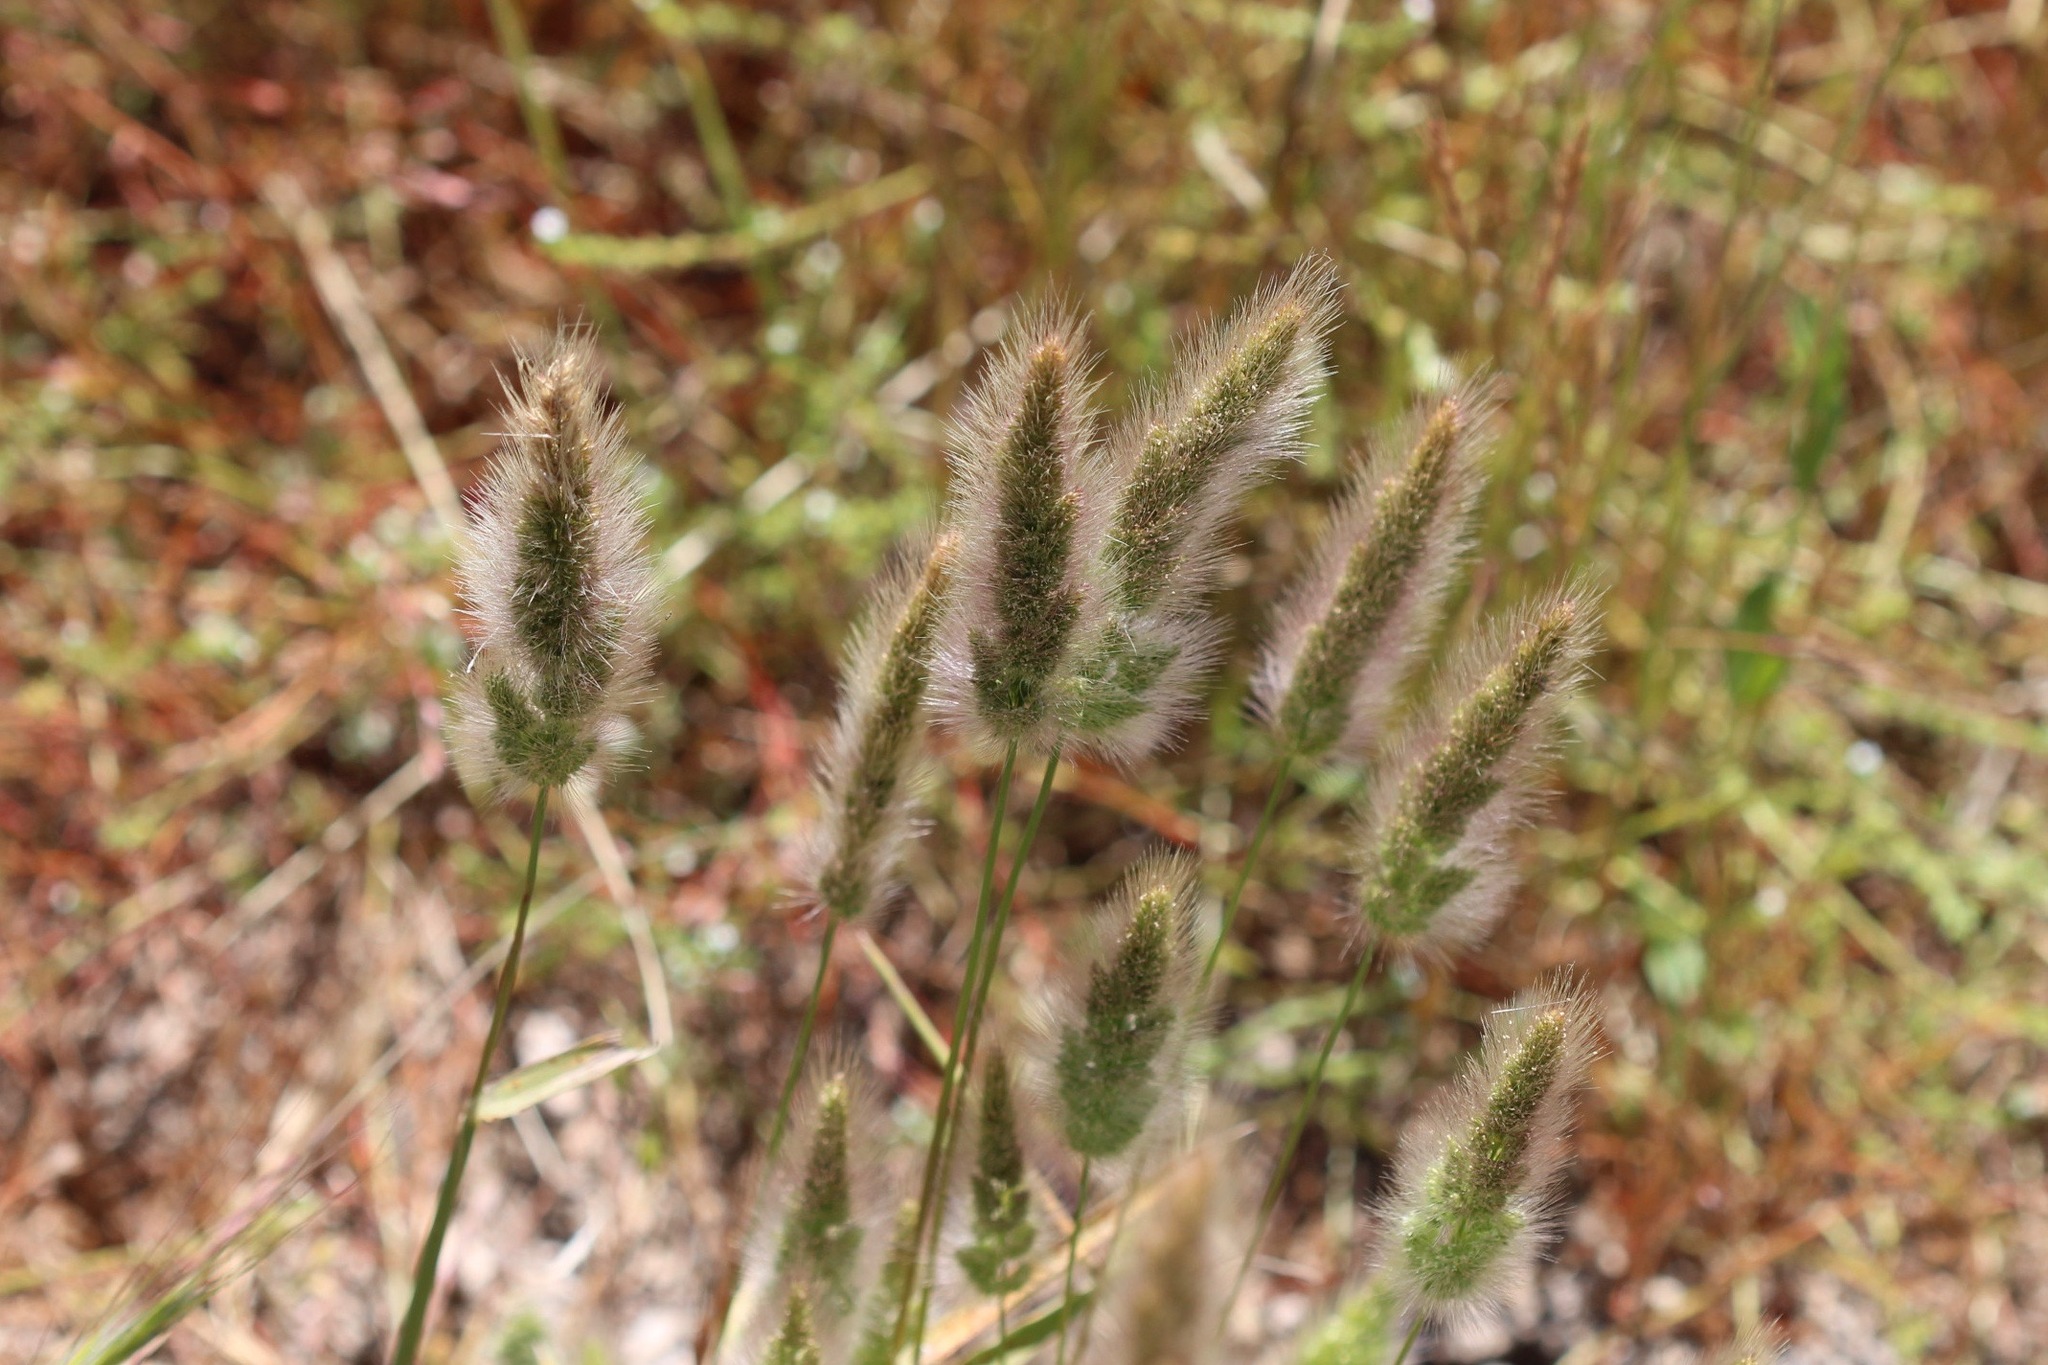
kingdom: Plantae
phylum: Tracheophyta
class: Liliopsida
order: Poales
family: Poaceae
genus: Polypogon
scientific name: Polypogon monspeliensis
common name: Annual rabbitsfoot grass
